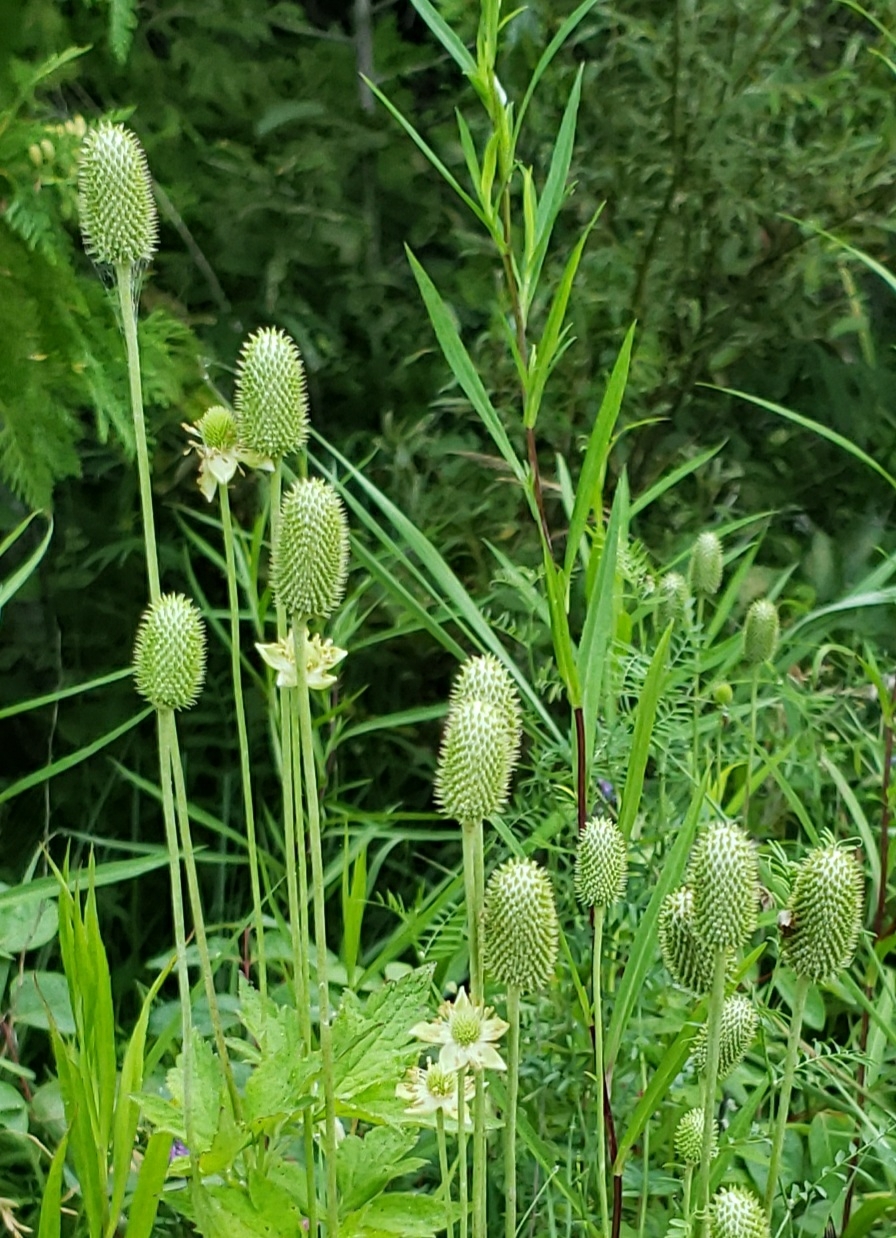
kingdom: Plantae
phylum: Tracheophyta
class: Magnoliopsida
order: Ranunculales
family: Ranunculaceae
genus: Anemone
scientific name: Anemone virginiana
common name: Tall anemone
